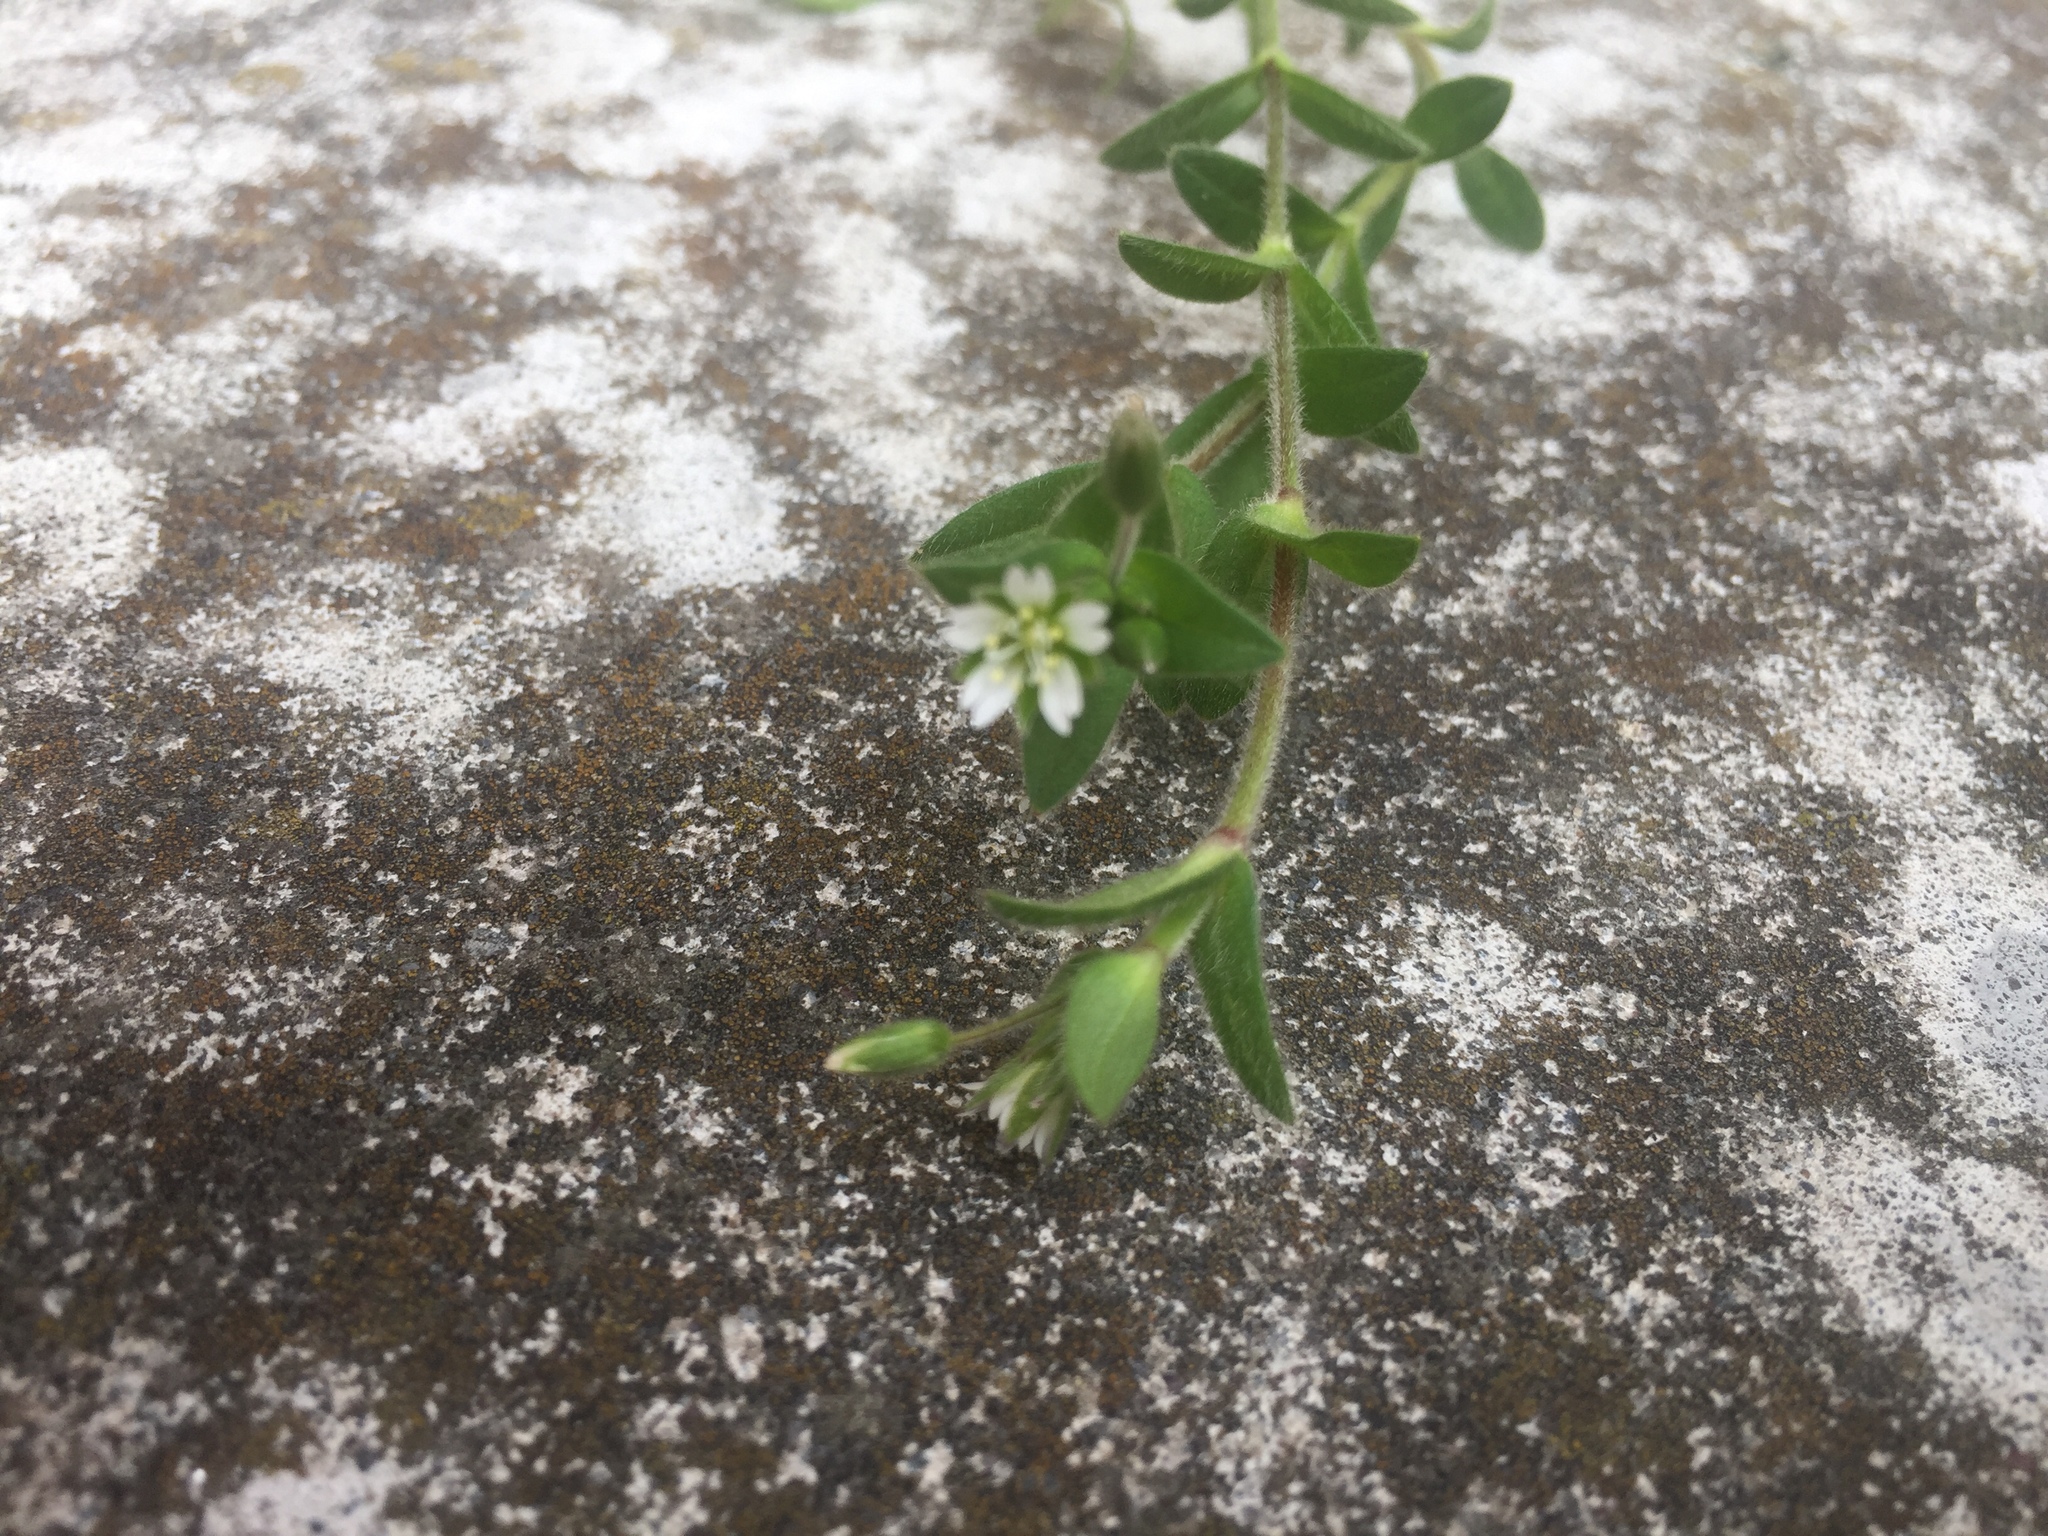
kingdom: Plantae
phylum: Tracheophyta
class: Magnoliopsida
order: Caryophyllales
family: Caryophyllaceae
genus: Cerastium
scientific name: Cerastium fontanum
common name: Common mouse-ear
